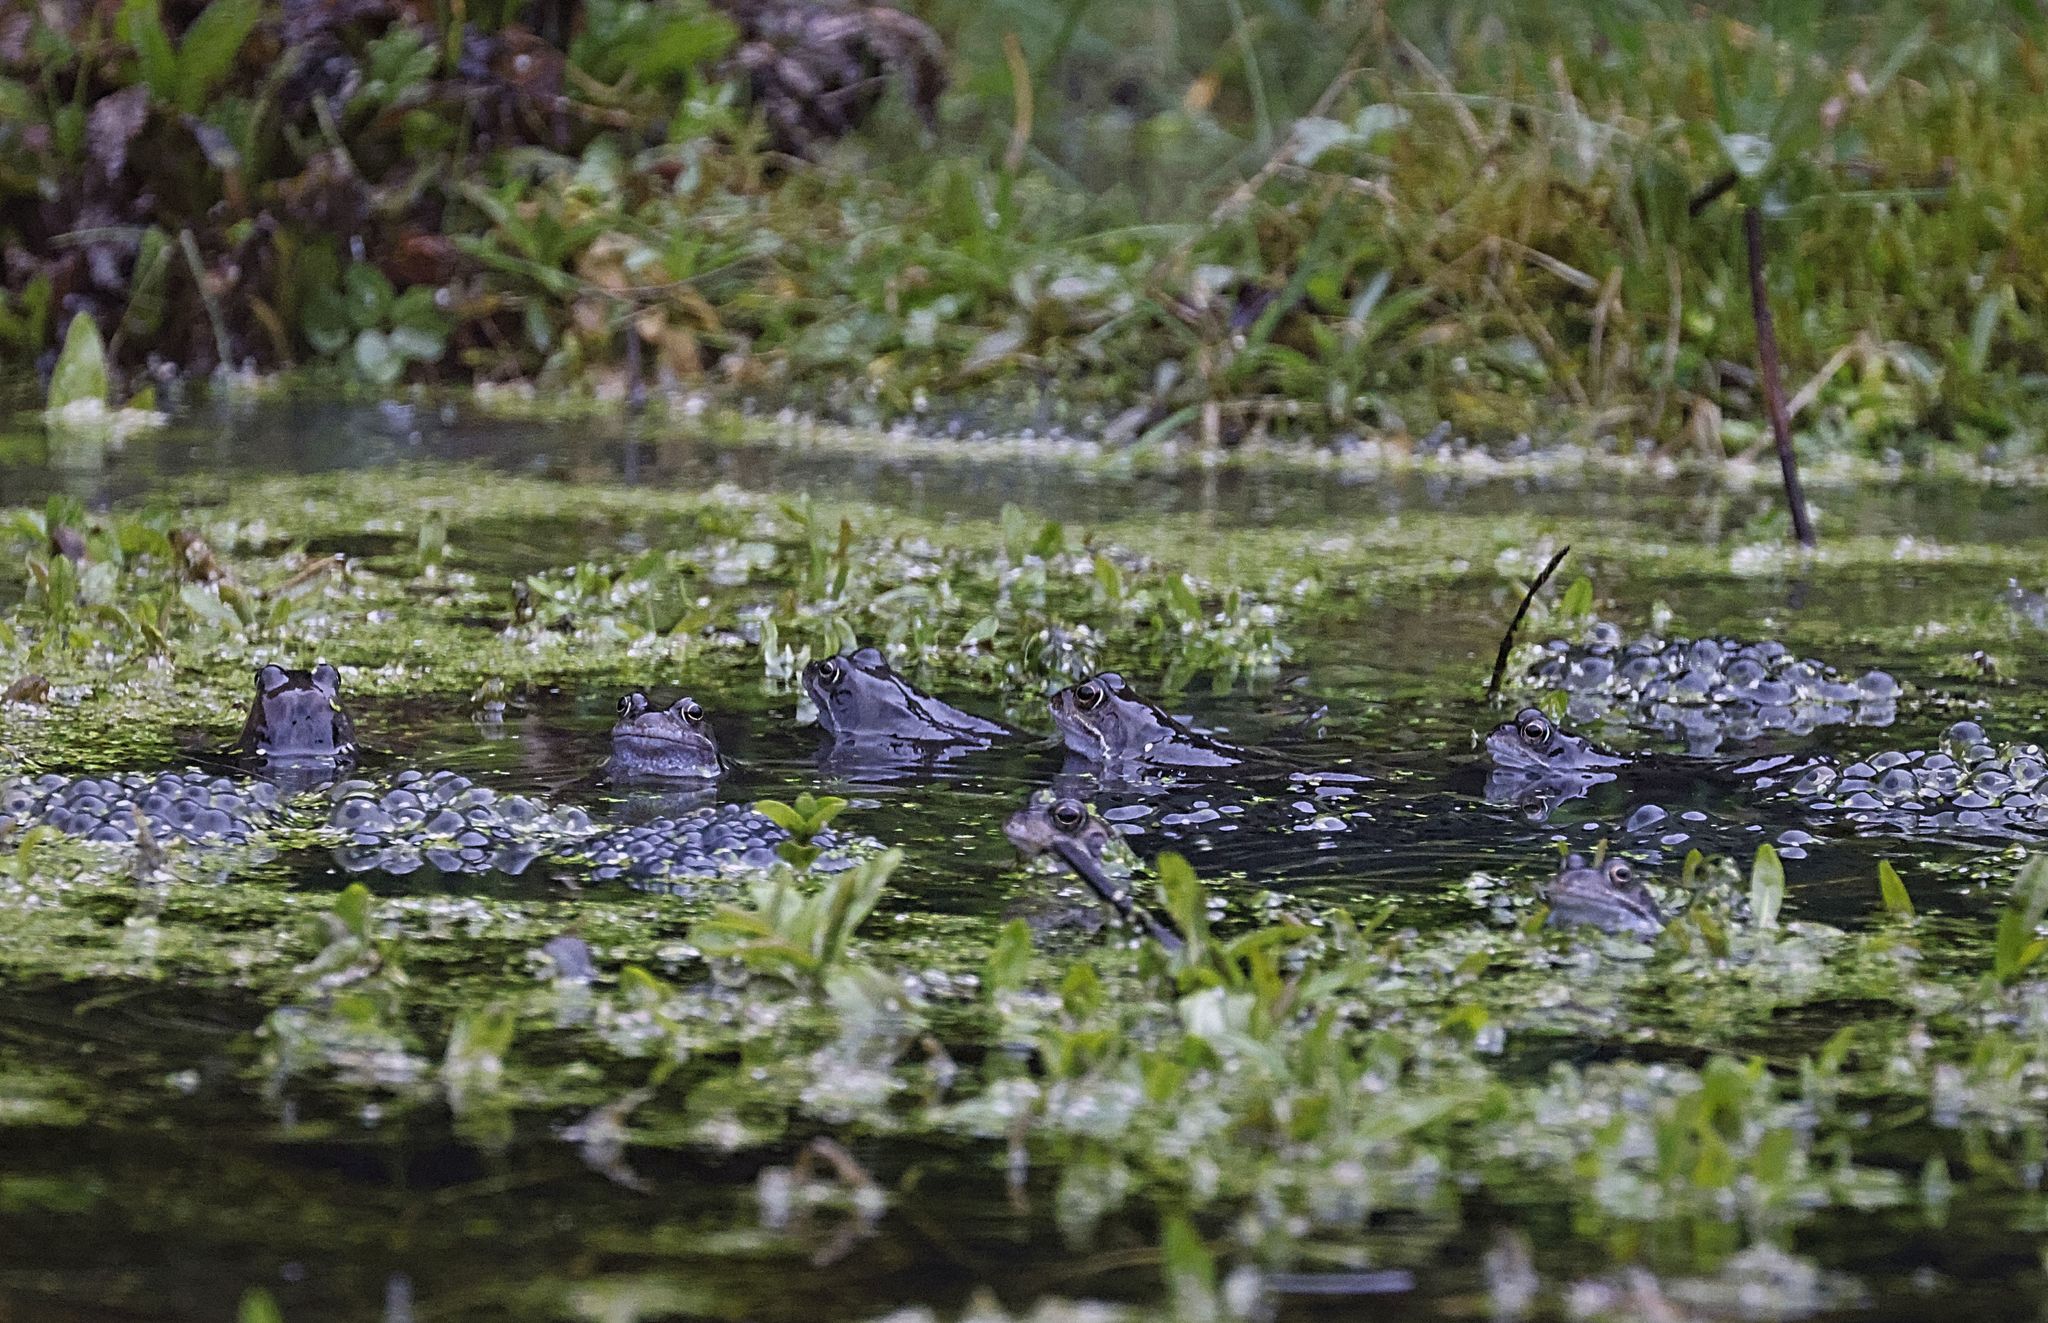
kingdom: Animalia
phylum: Chordata
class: Amphibia
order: Anura
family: Ranidae
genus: Rana
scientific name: Rana temporaria
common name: Common frog
